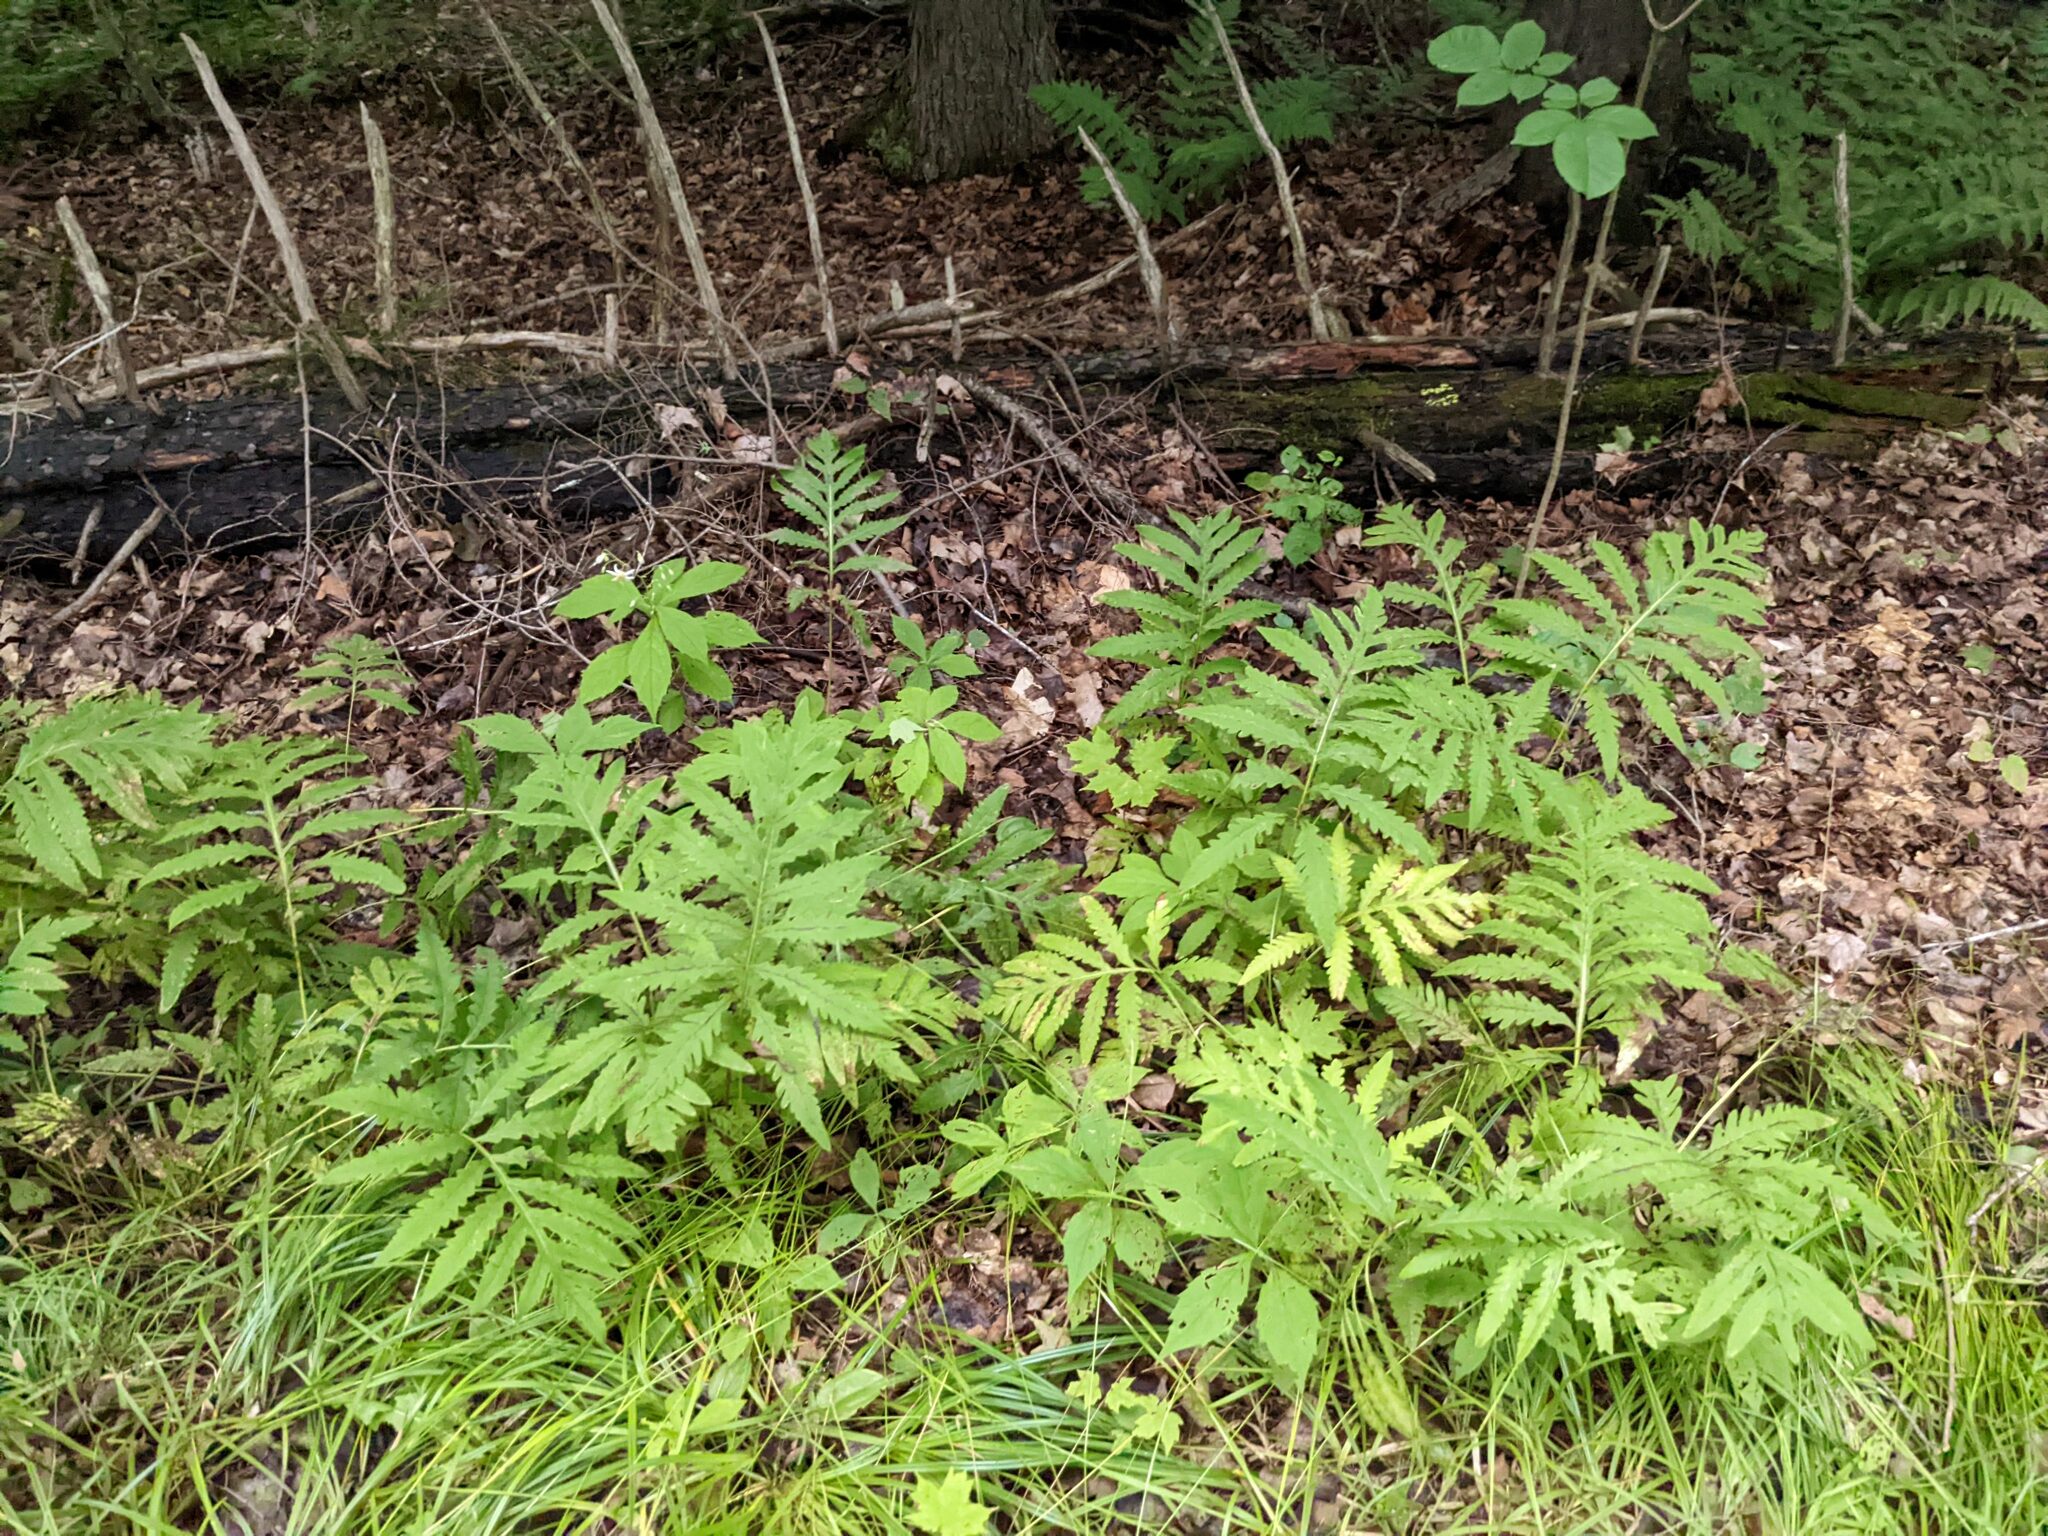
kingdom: Plantae
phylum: Tracheophyta
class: Polypodiopsida
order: Polypodiales
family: Onocleaceae
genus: Onoclea
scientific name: Onoclea sensibilis
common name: Sensitive fern
